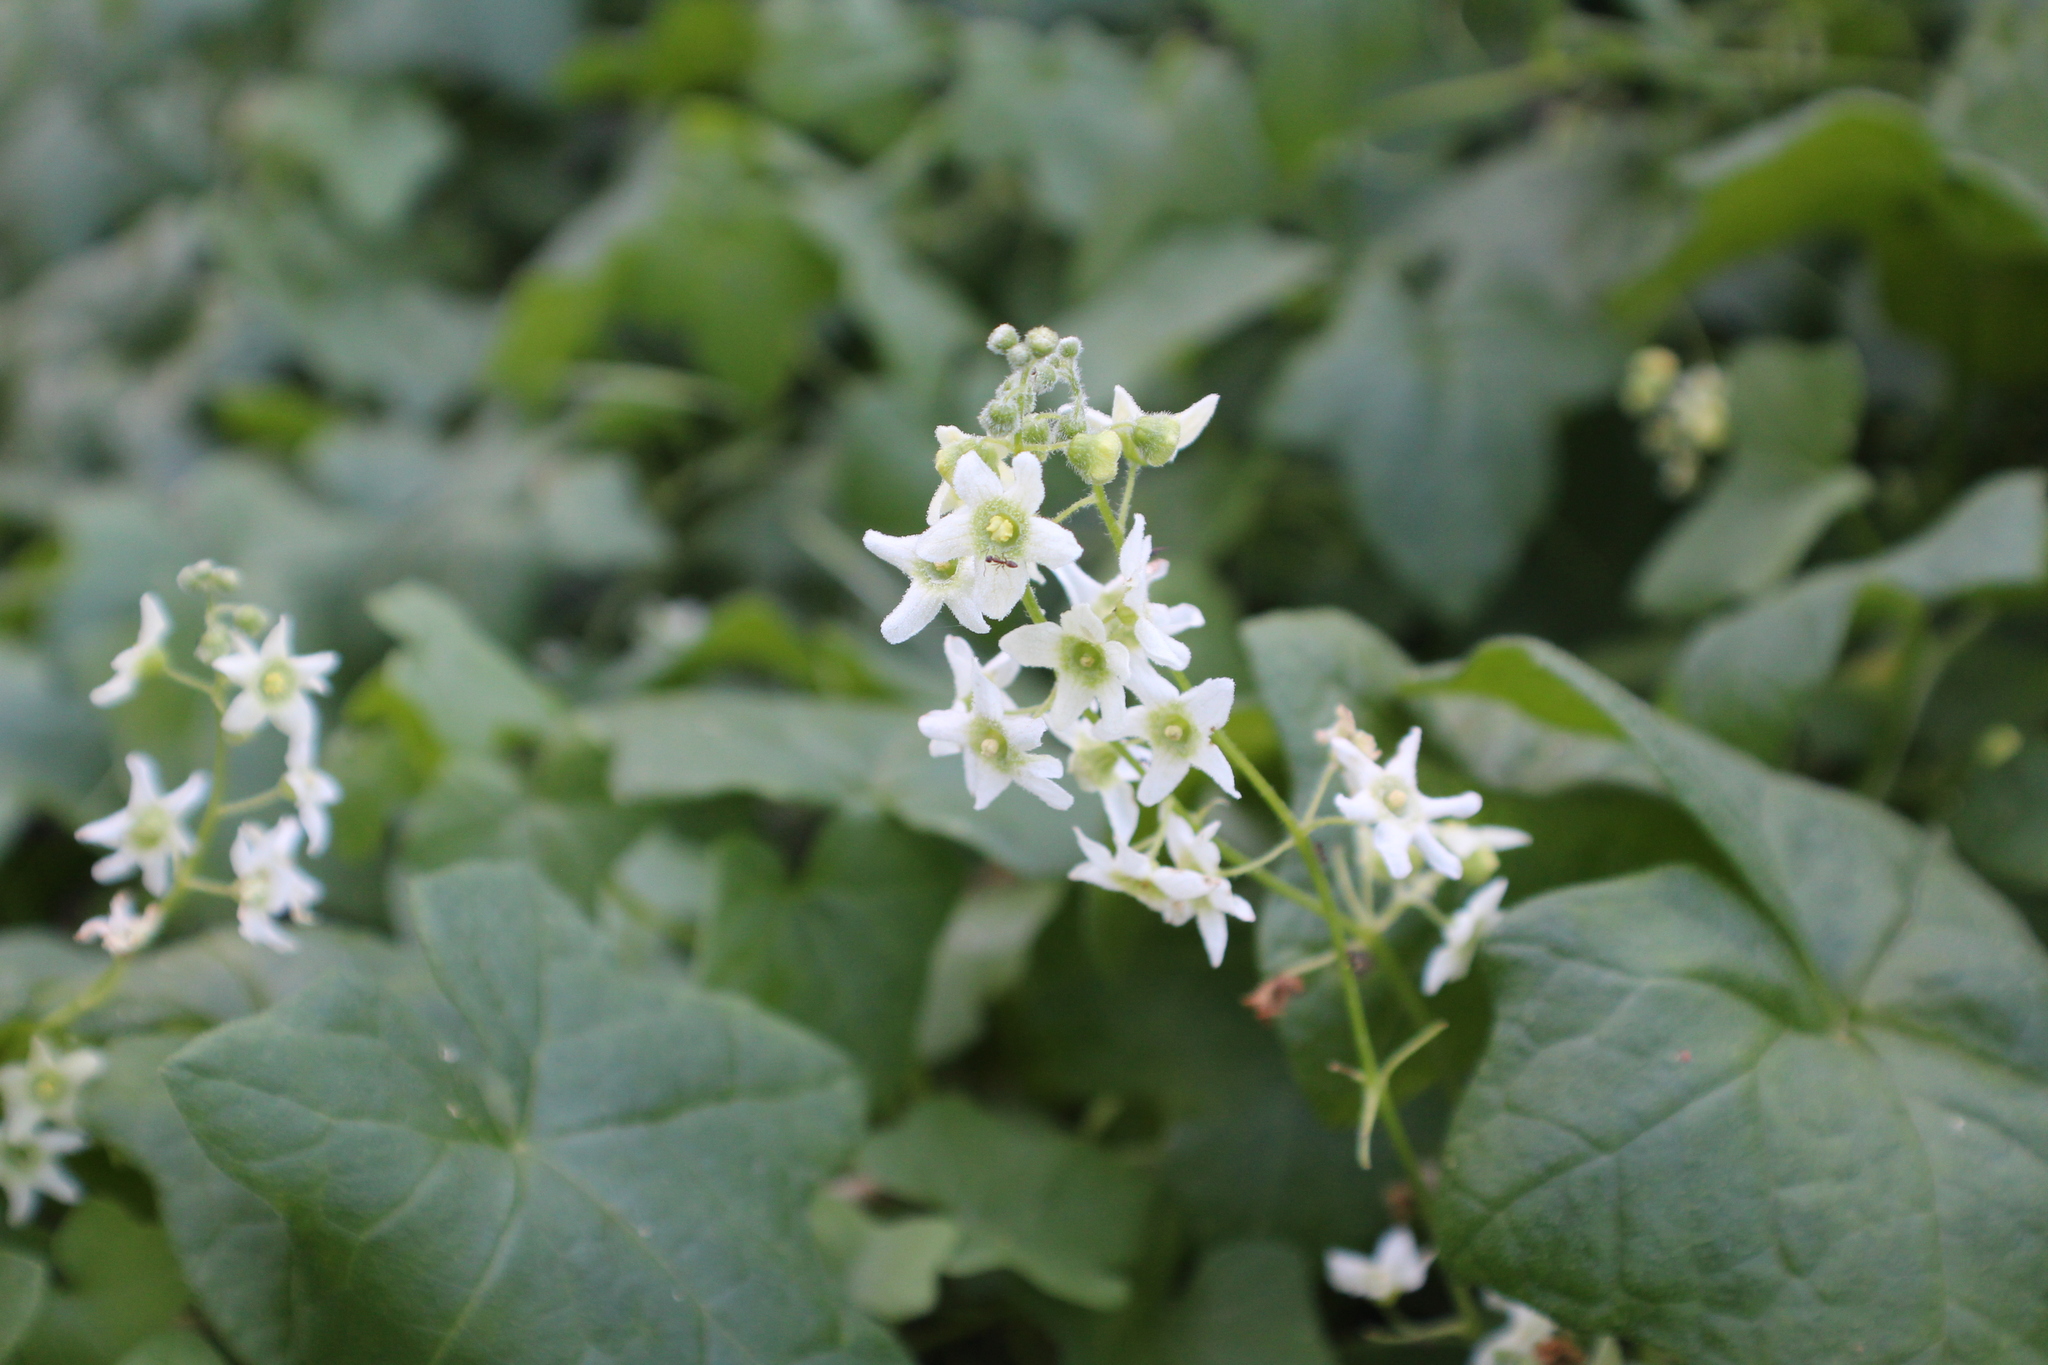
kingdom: Plantae
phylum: Tracheophyta
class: Magnoliopsida
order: Cucurbitales
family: Cucurbitaceae
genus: Marah
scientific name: Marah macrocarpa
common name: Cucamonga manroot
